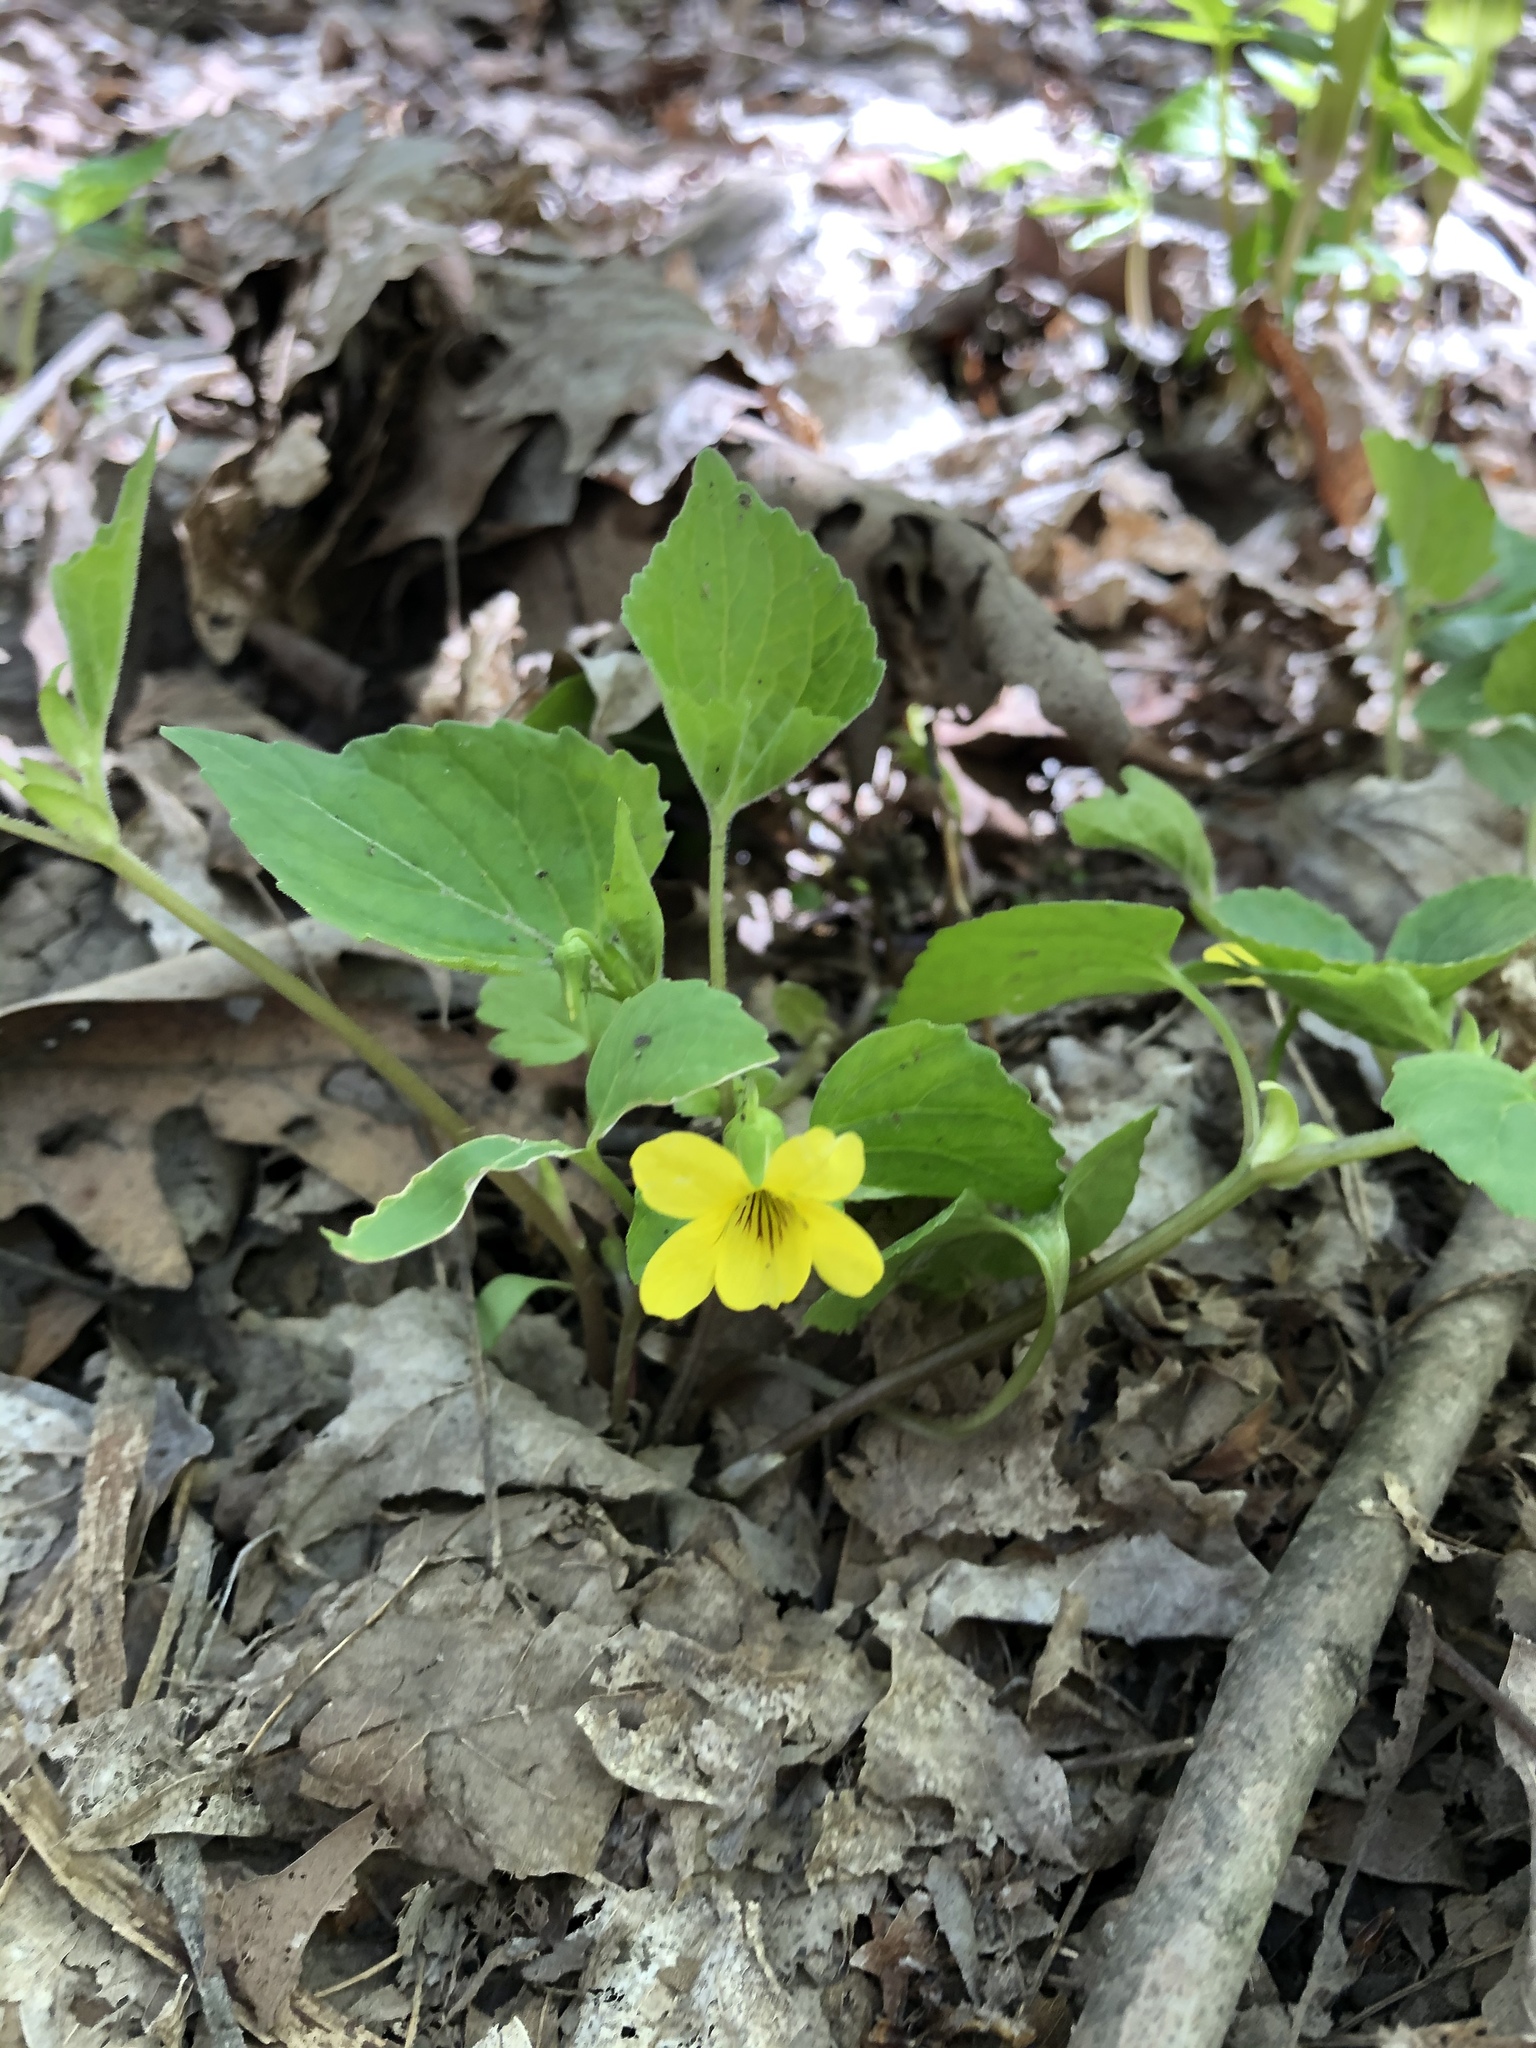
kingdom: Plantae
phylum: Tracheophyta
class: Magnoliopsida
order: Malpighiales
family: Violaceae
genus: Viola
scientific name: Viola eriocarpa
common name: Smooth yellow violet
